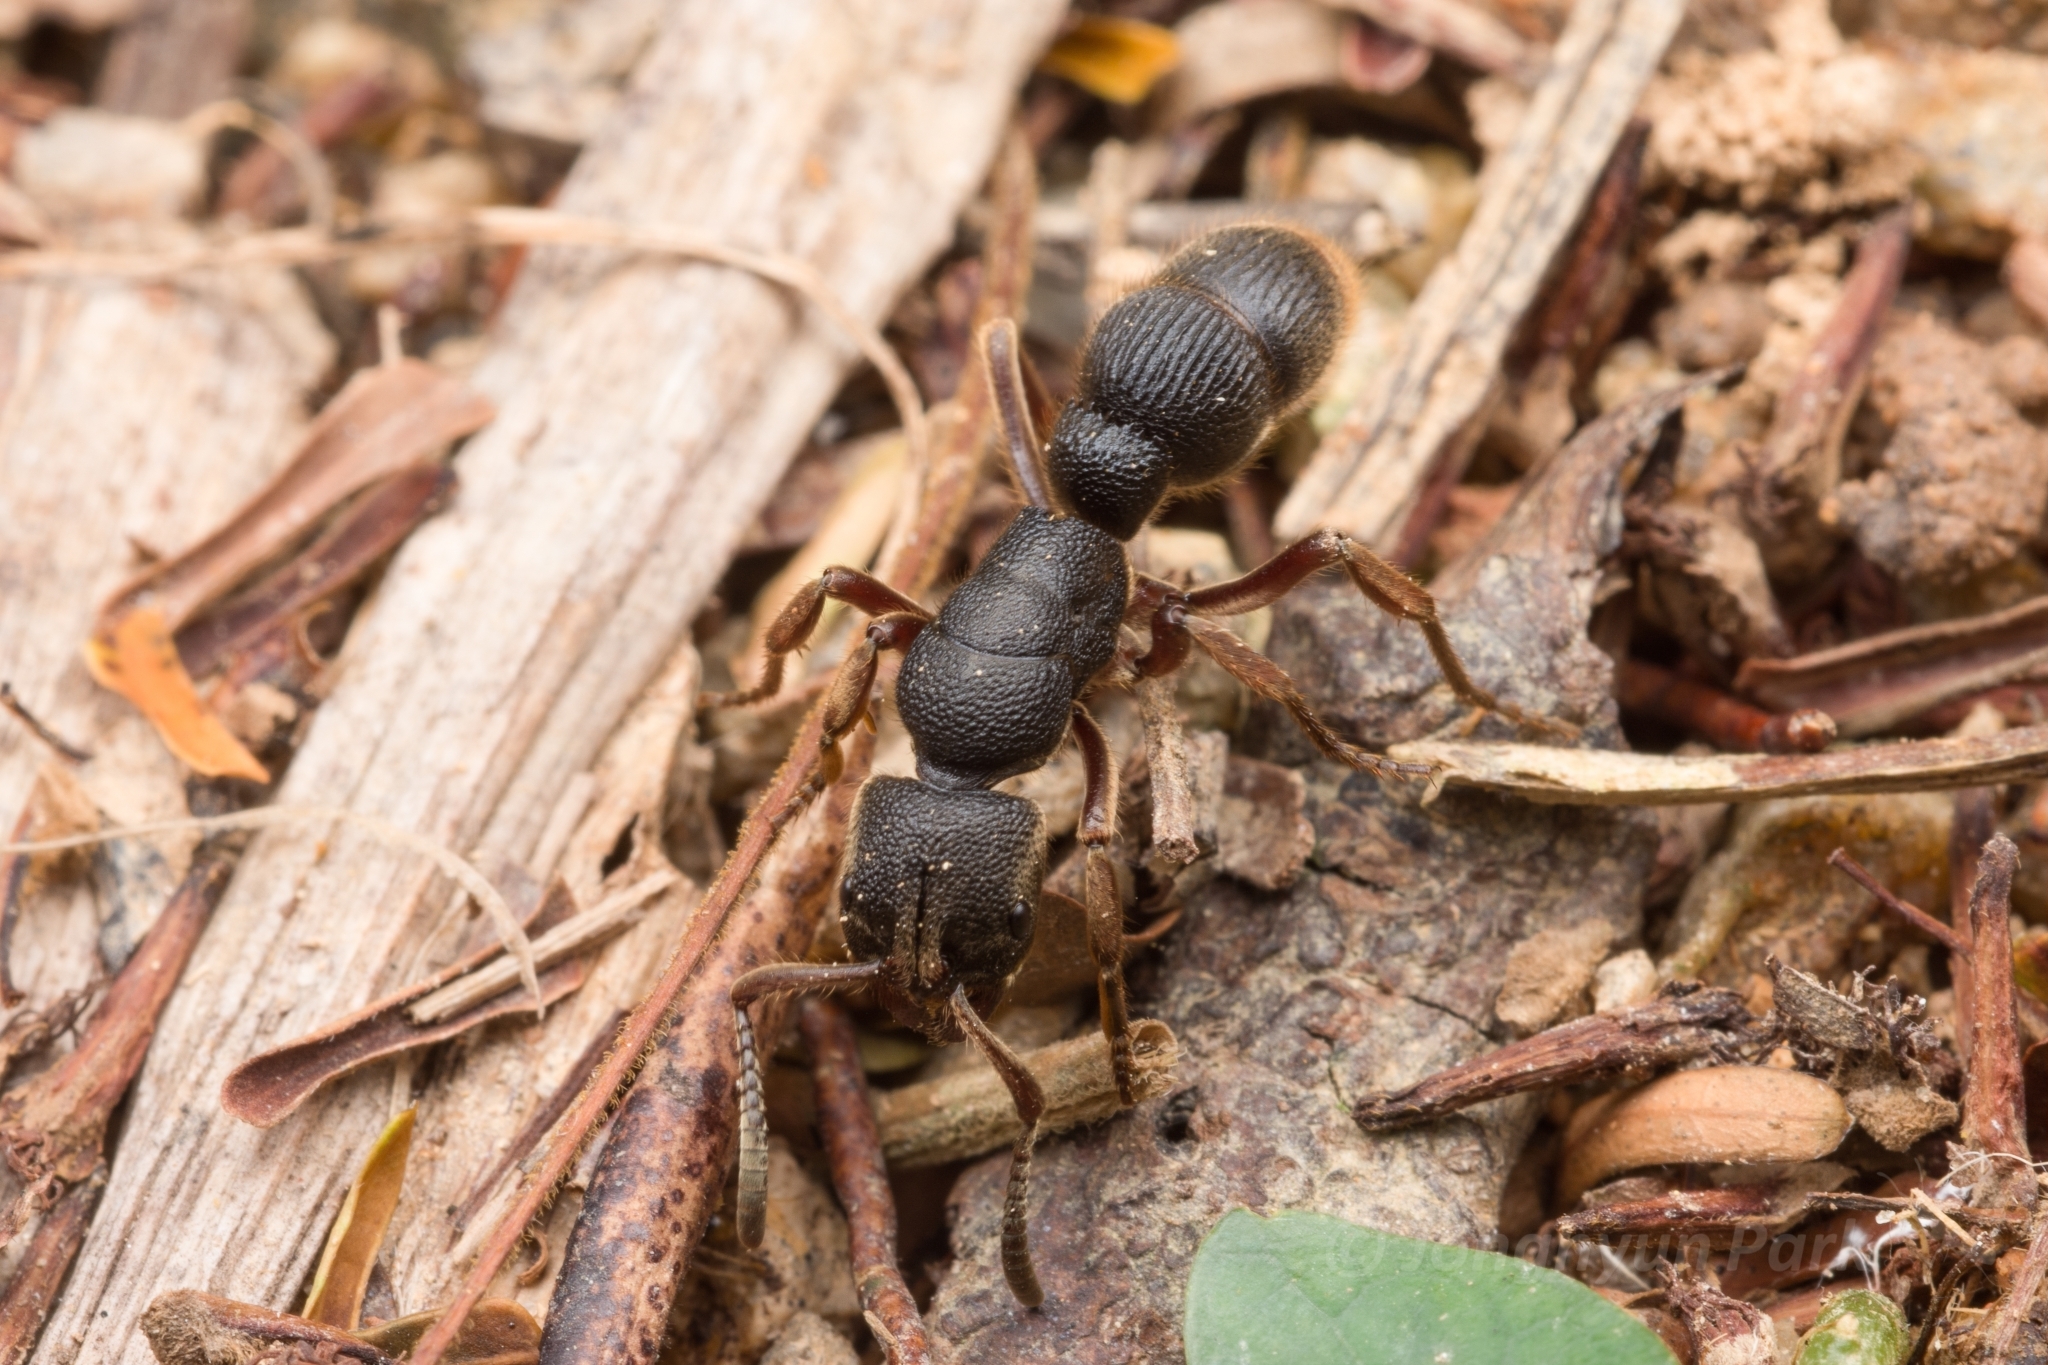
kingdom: Animalia
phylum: Arthropoda
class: Insecta
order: Hymenoptera
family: Formicidae
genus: Pseudoneoponera
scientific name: Pseudoneoponera rufipes
